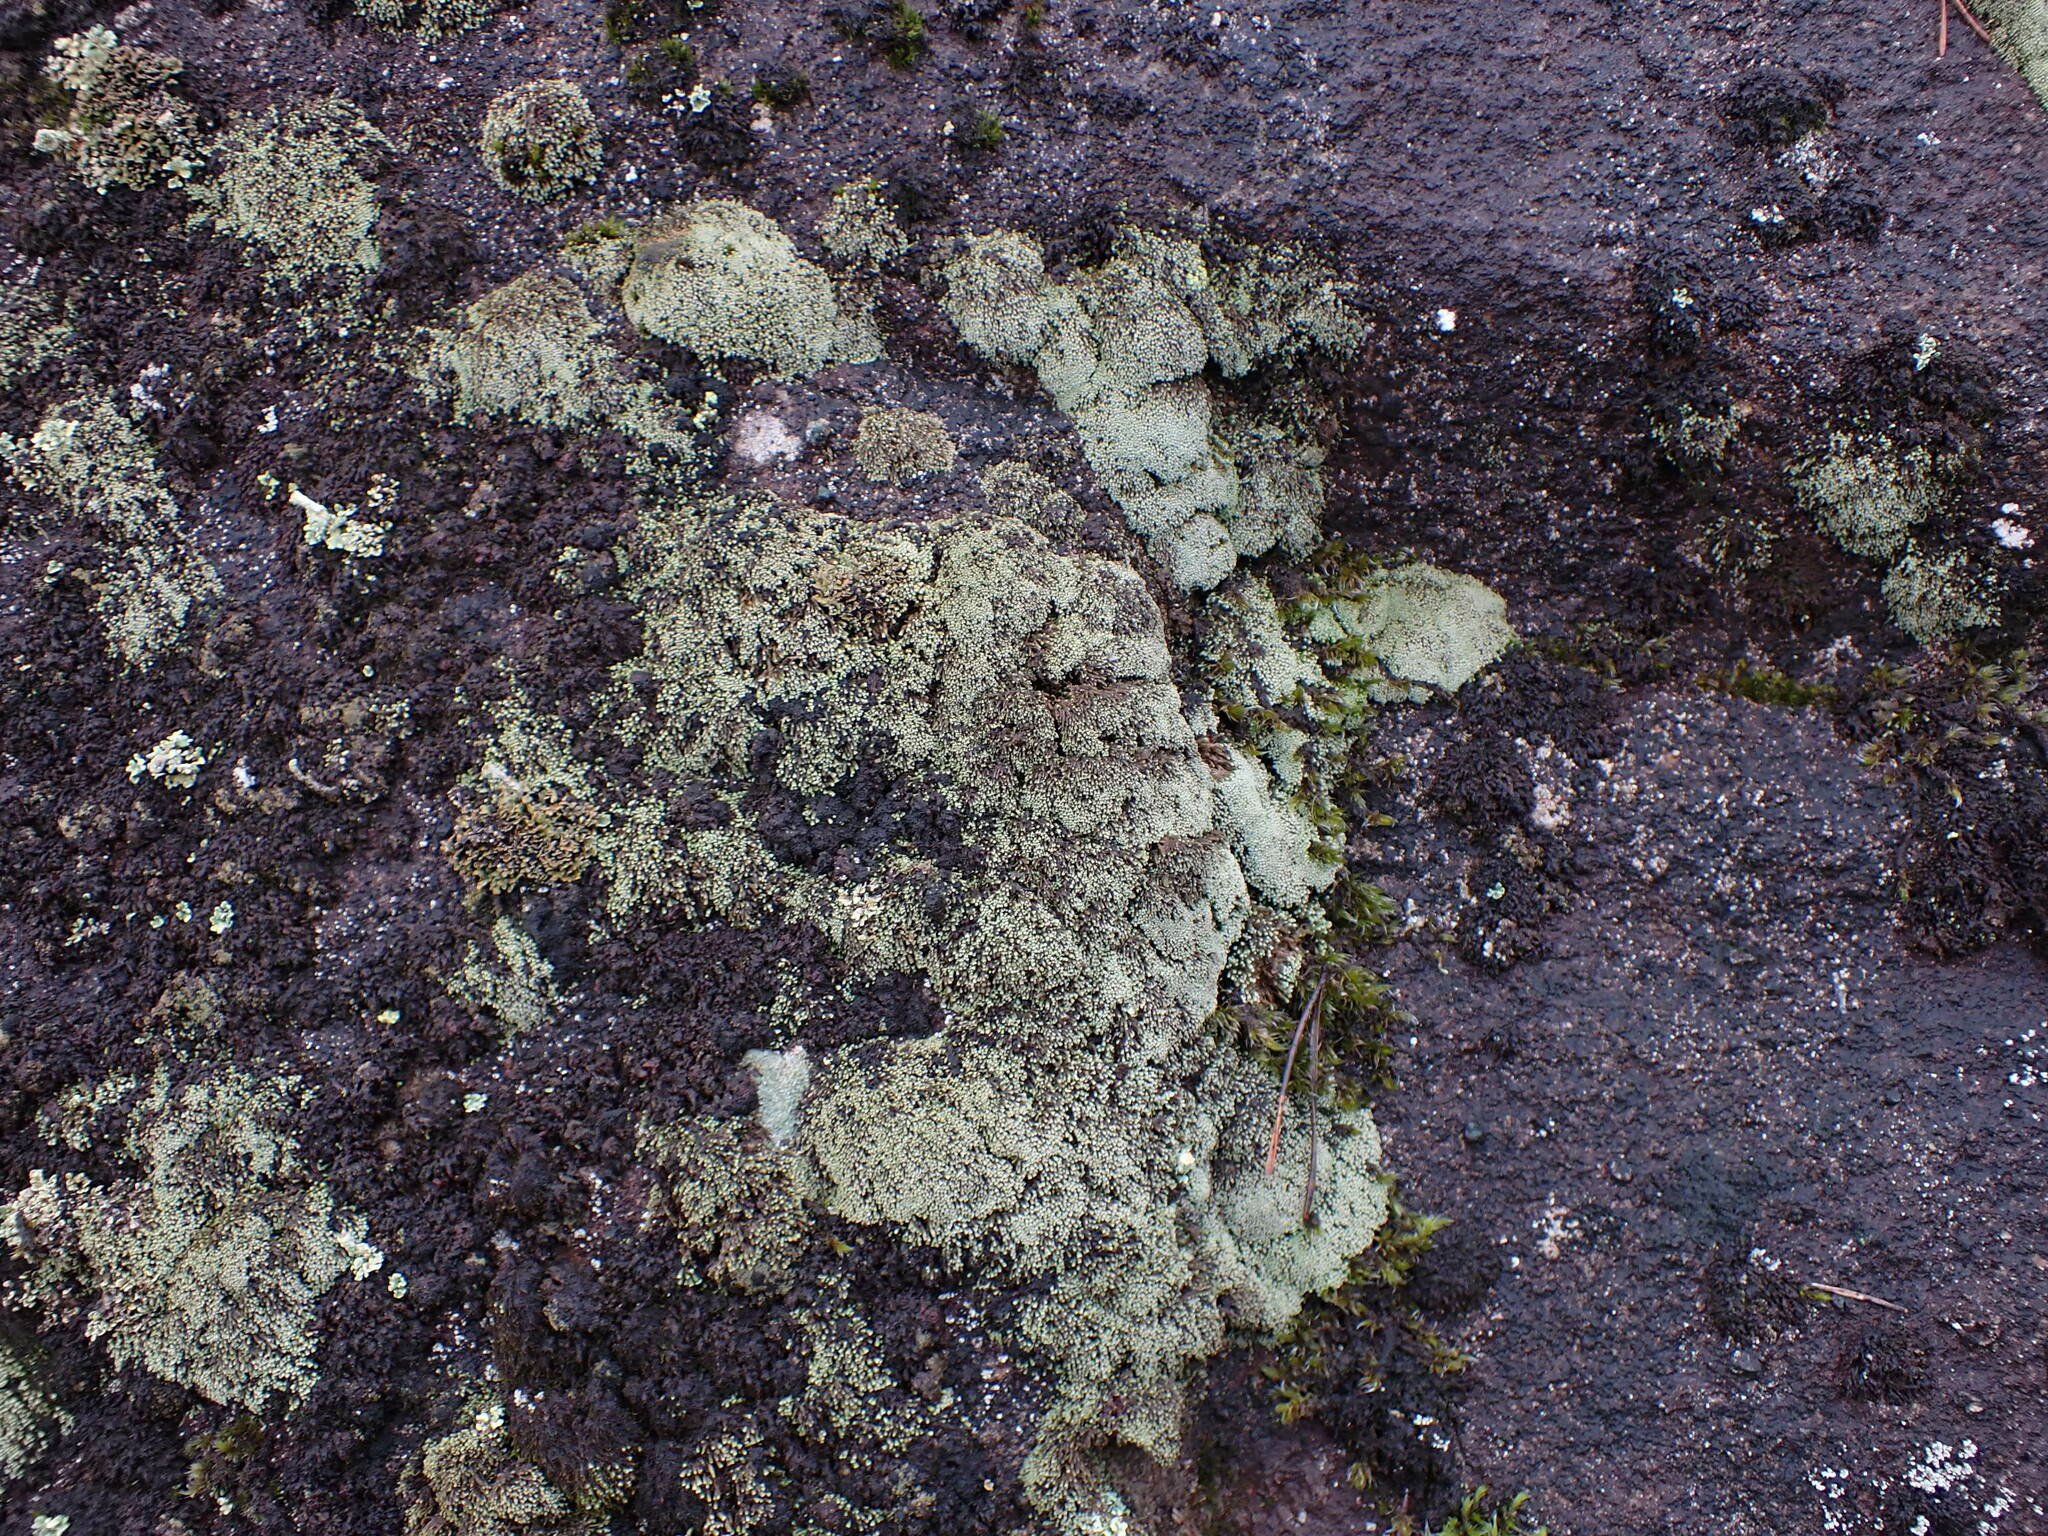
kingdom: Plantae
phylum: Marchantiophyta
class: Jungermanniopsida
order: Jungermanniales
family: Gymnomitriaceae
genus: Gymnomitrion
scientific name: Gymnomitrion obtusum
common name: White frostwort
